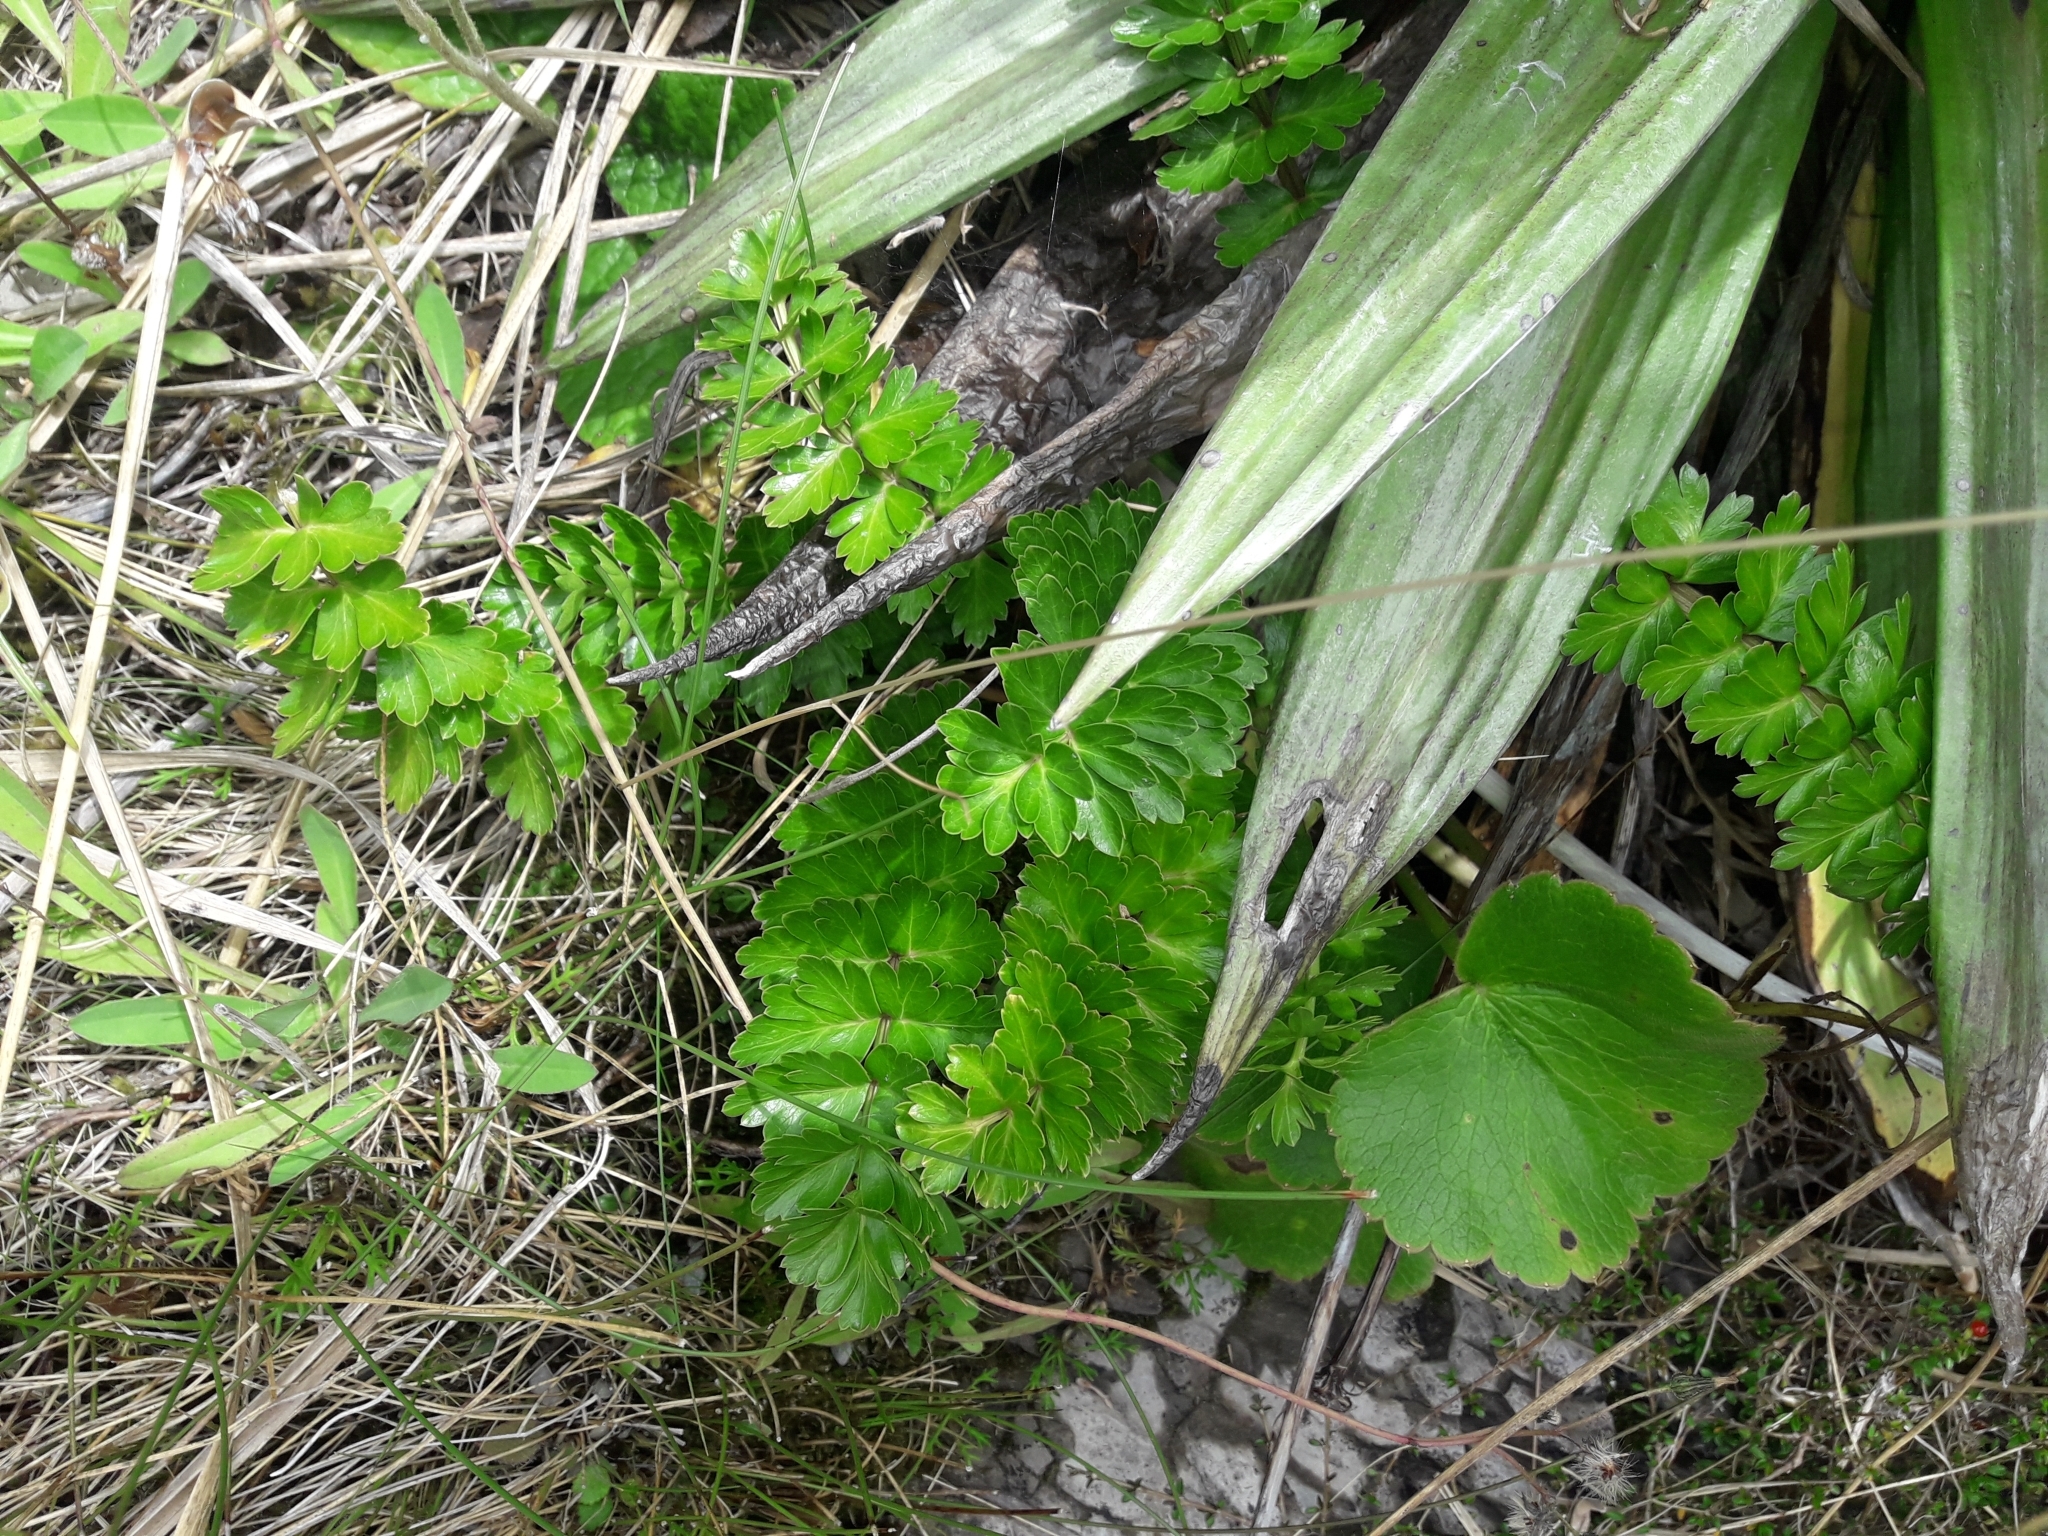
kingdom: Plantae
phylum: Tracheophyta
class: Magnoliopsida
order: Apiales
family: Apiaceae
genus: Anisotome
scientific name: Anisotome pilifera
